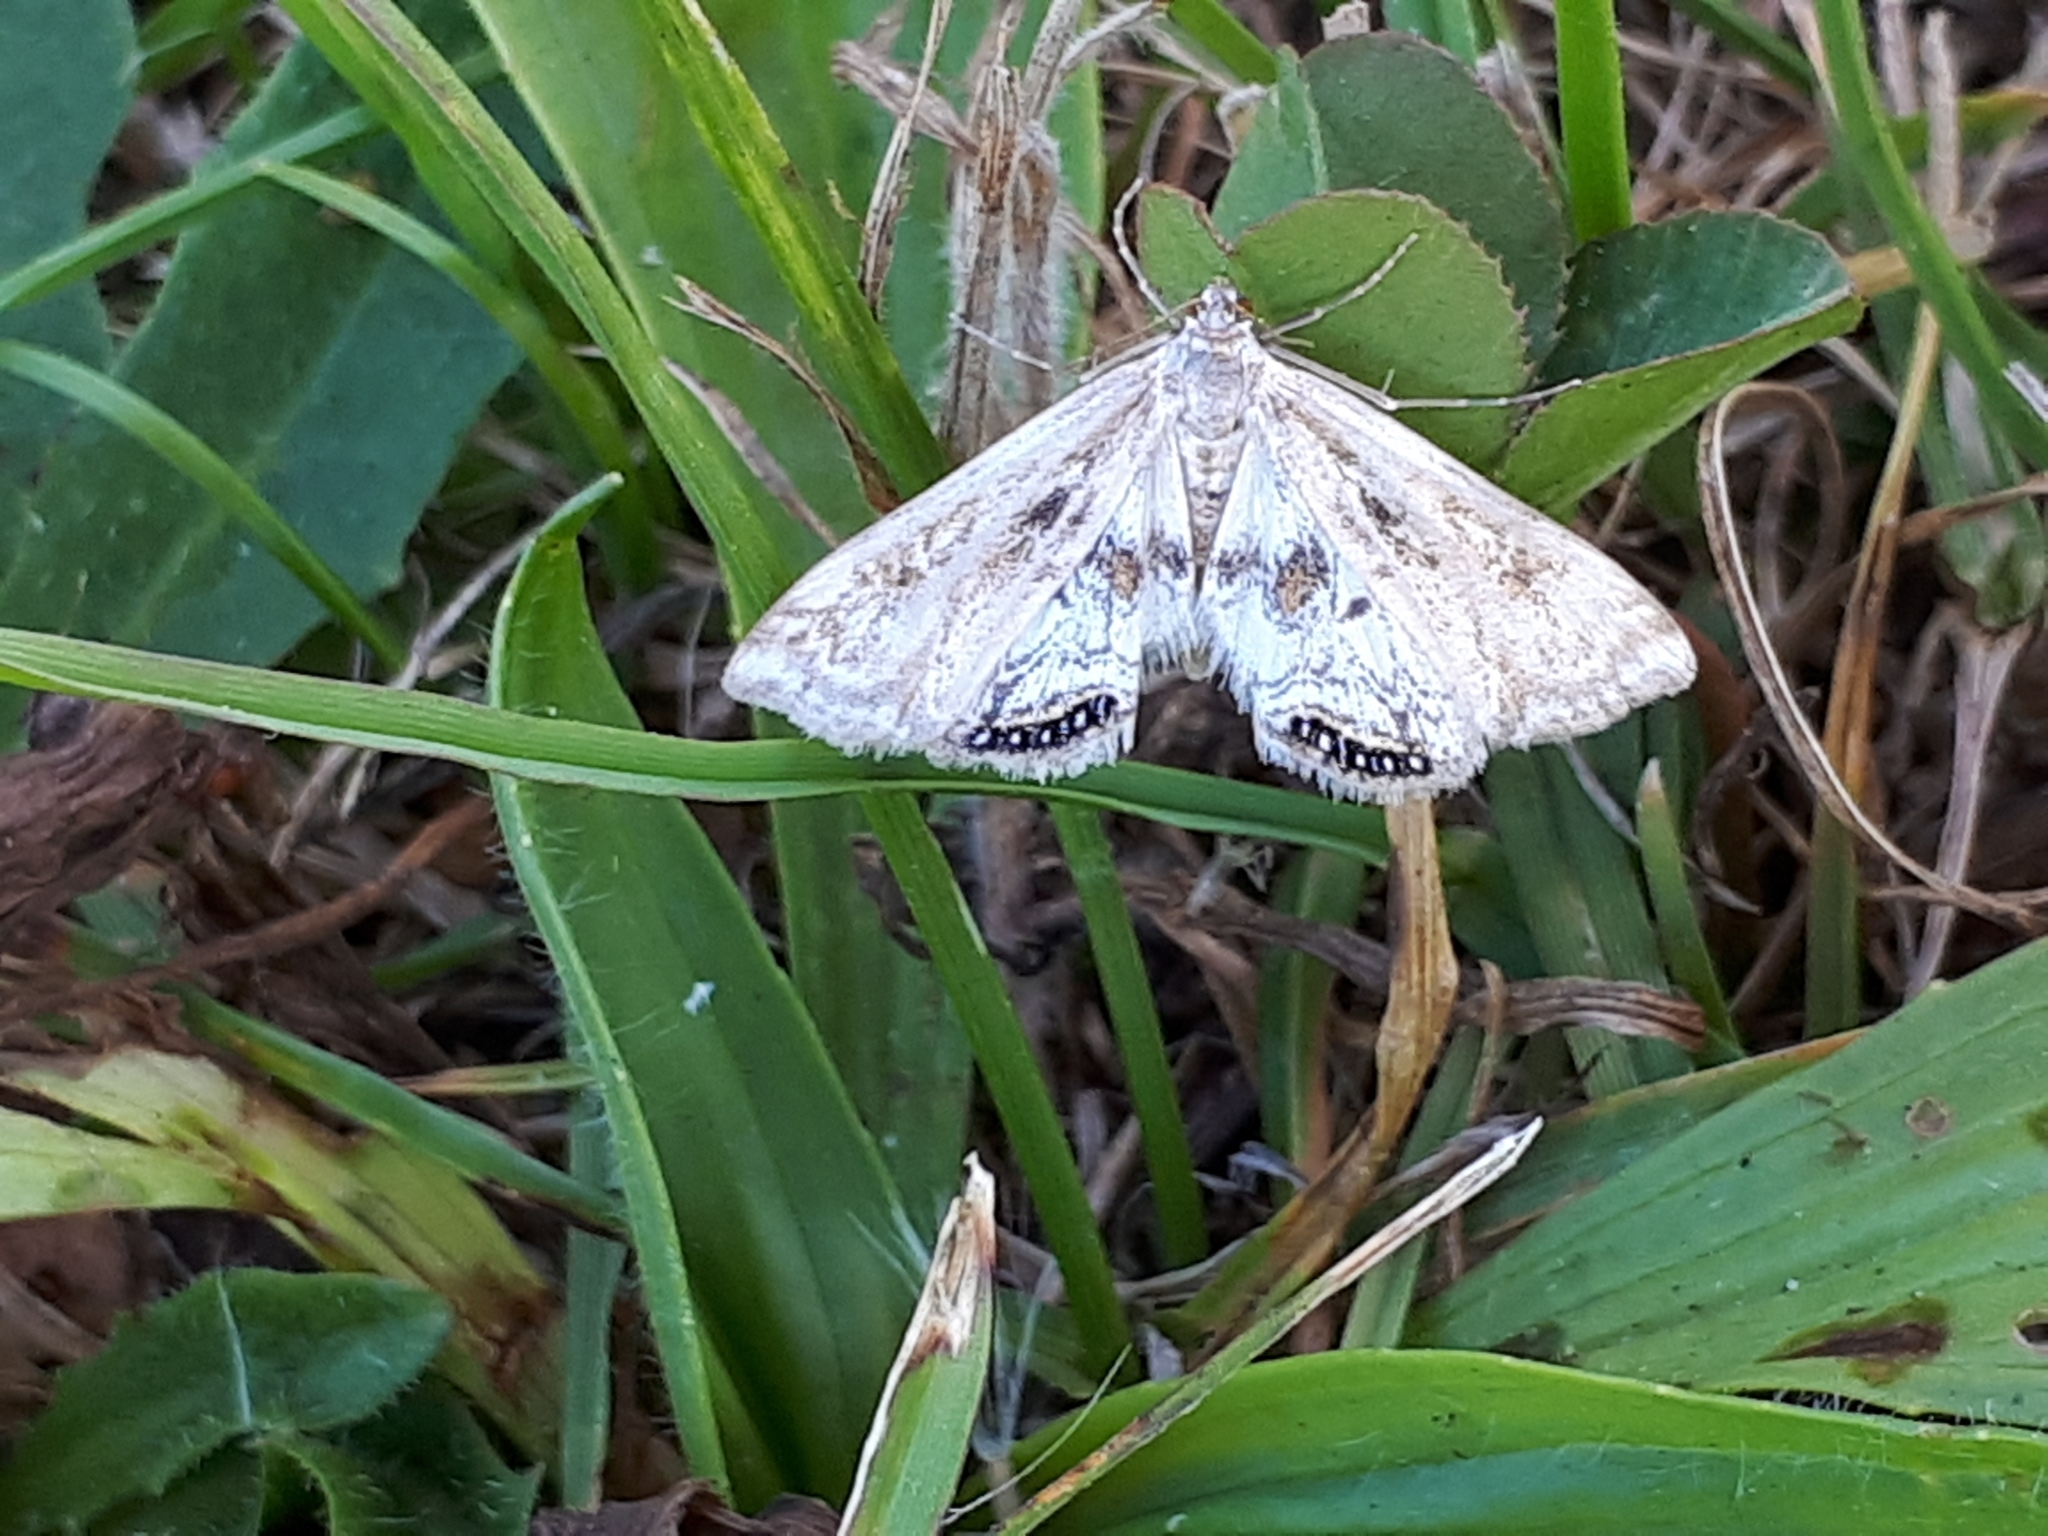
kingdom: Animalia
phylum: Arthropoda
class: Insecta
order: Lepidoptera
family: Crambidae
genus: Cataclysta
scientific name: Cataclysta lemnata
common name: Small china-mark
